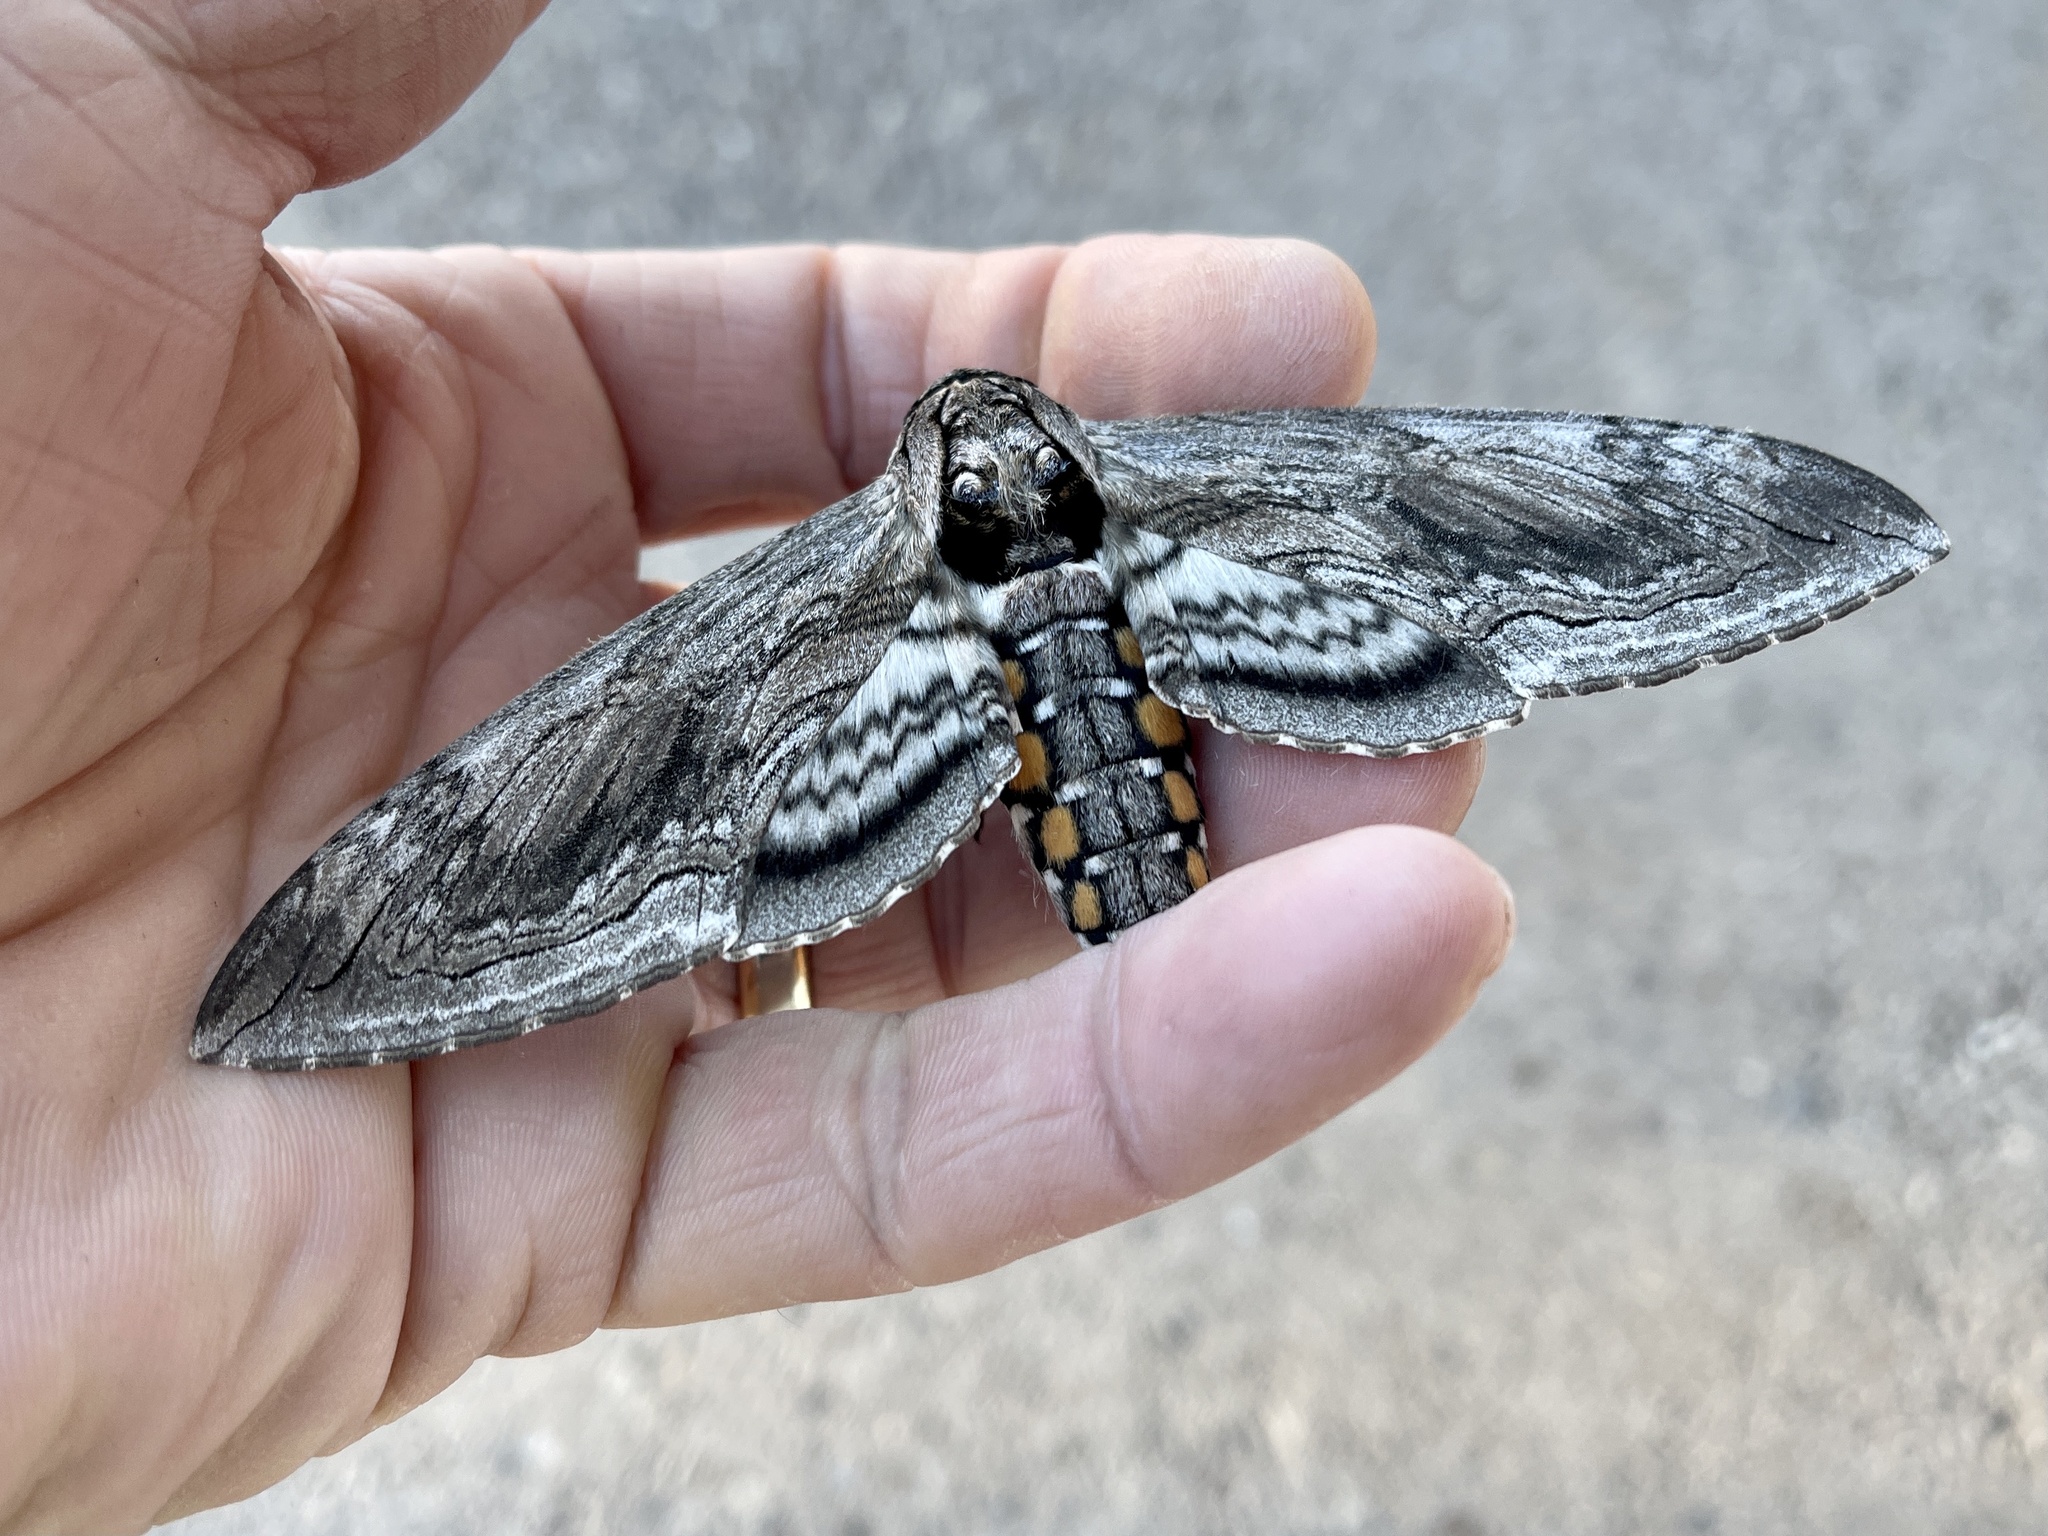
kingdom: Animalia
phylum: Arthropoda
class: Insecta
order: Lepidoptera
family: Sphingidae
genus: Manduca
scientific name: Manduca quinquemaculatus
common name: Five-spotted hawk-moth
